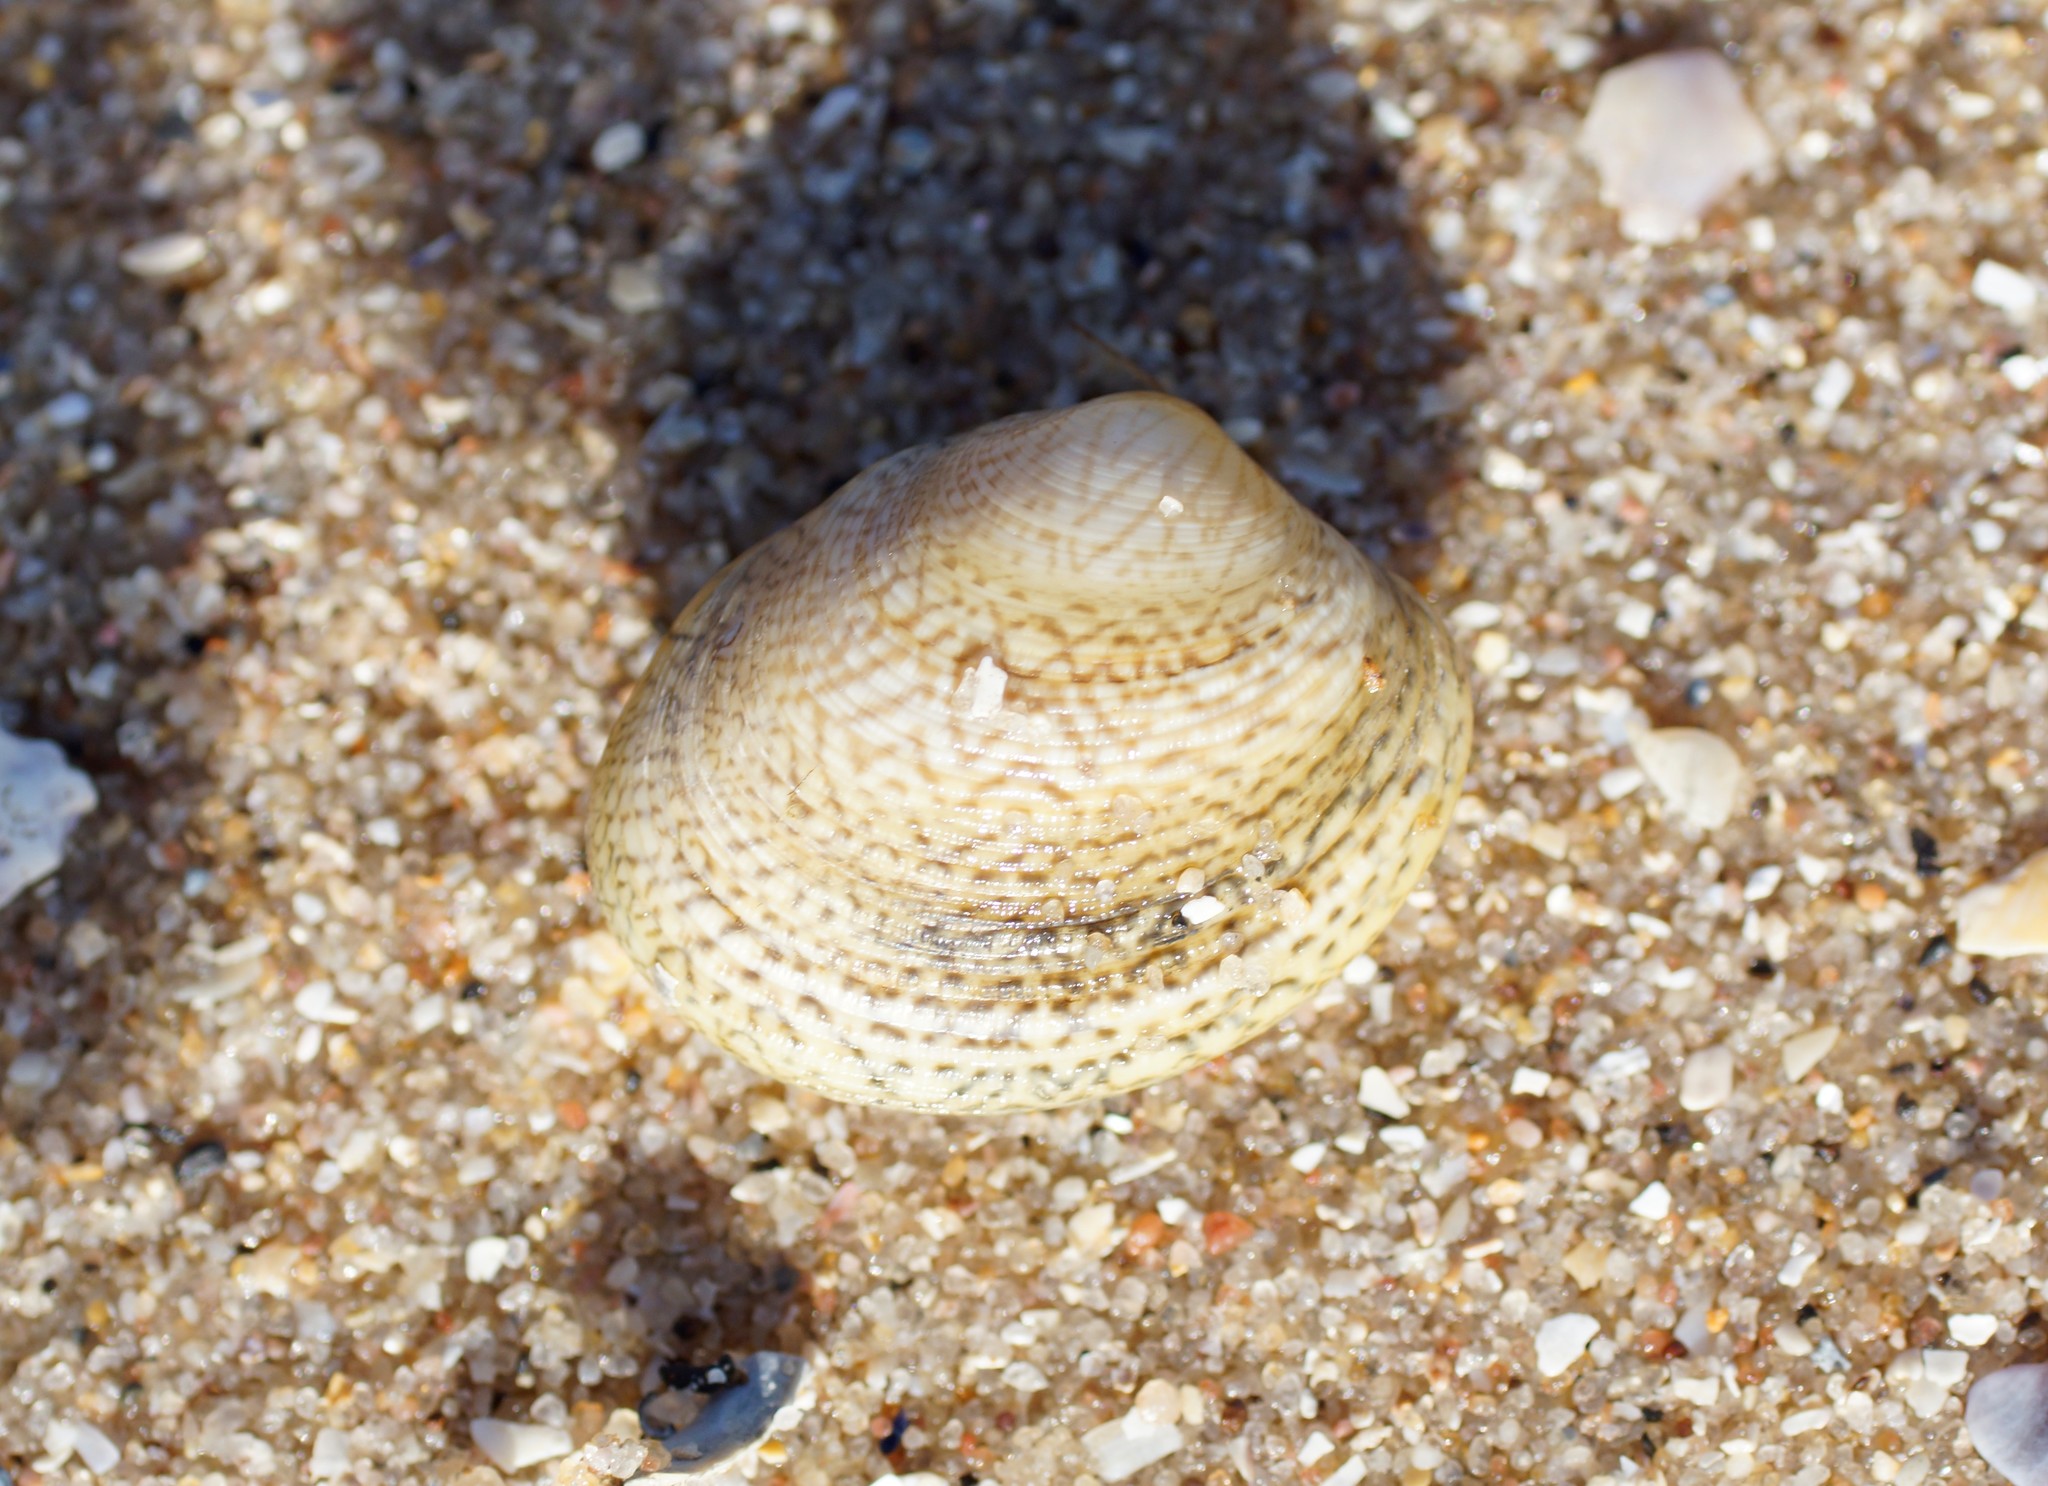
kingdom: Animalia
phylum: Mollusca
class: Bivalvia
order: Venerida
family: Veneridae
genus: Katelysia
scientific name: Katelysia rhytiphora
